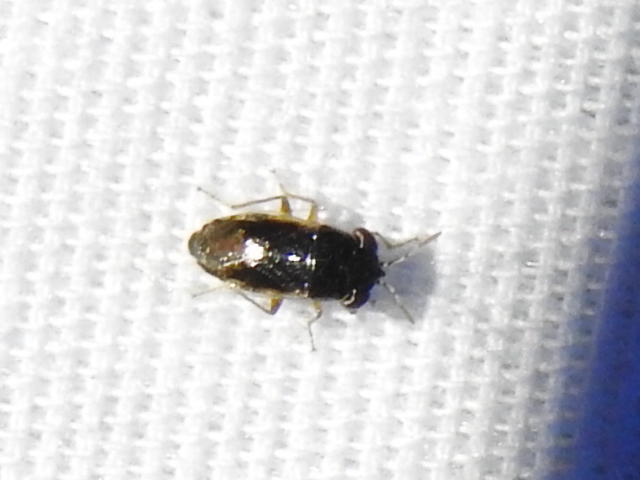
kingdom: Animalia
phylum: Arthropoda
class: Insecta
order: Hemiptera
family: Geocoridae
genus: Geocoris
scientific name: Geocoris uliginosus
